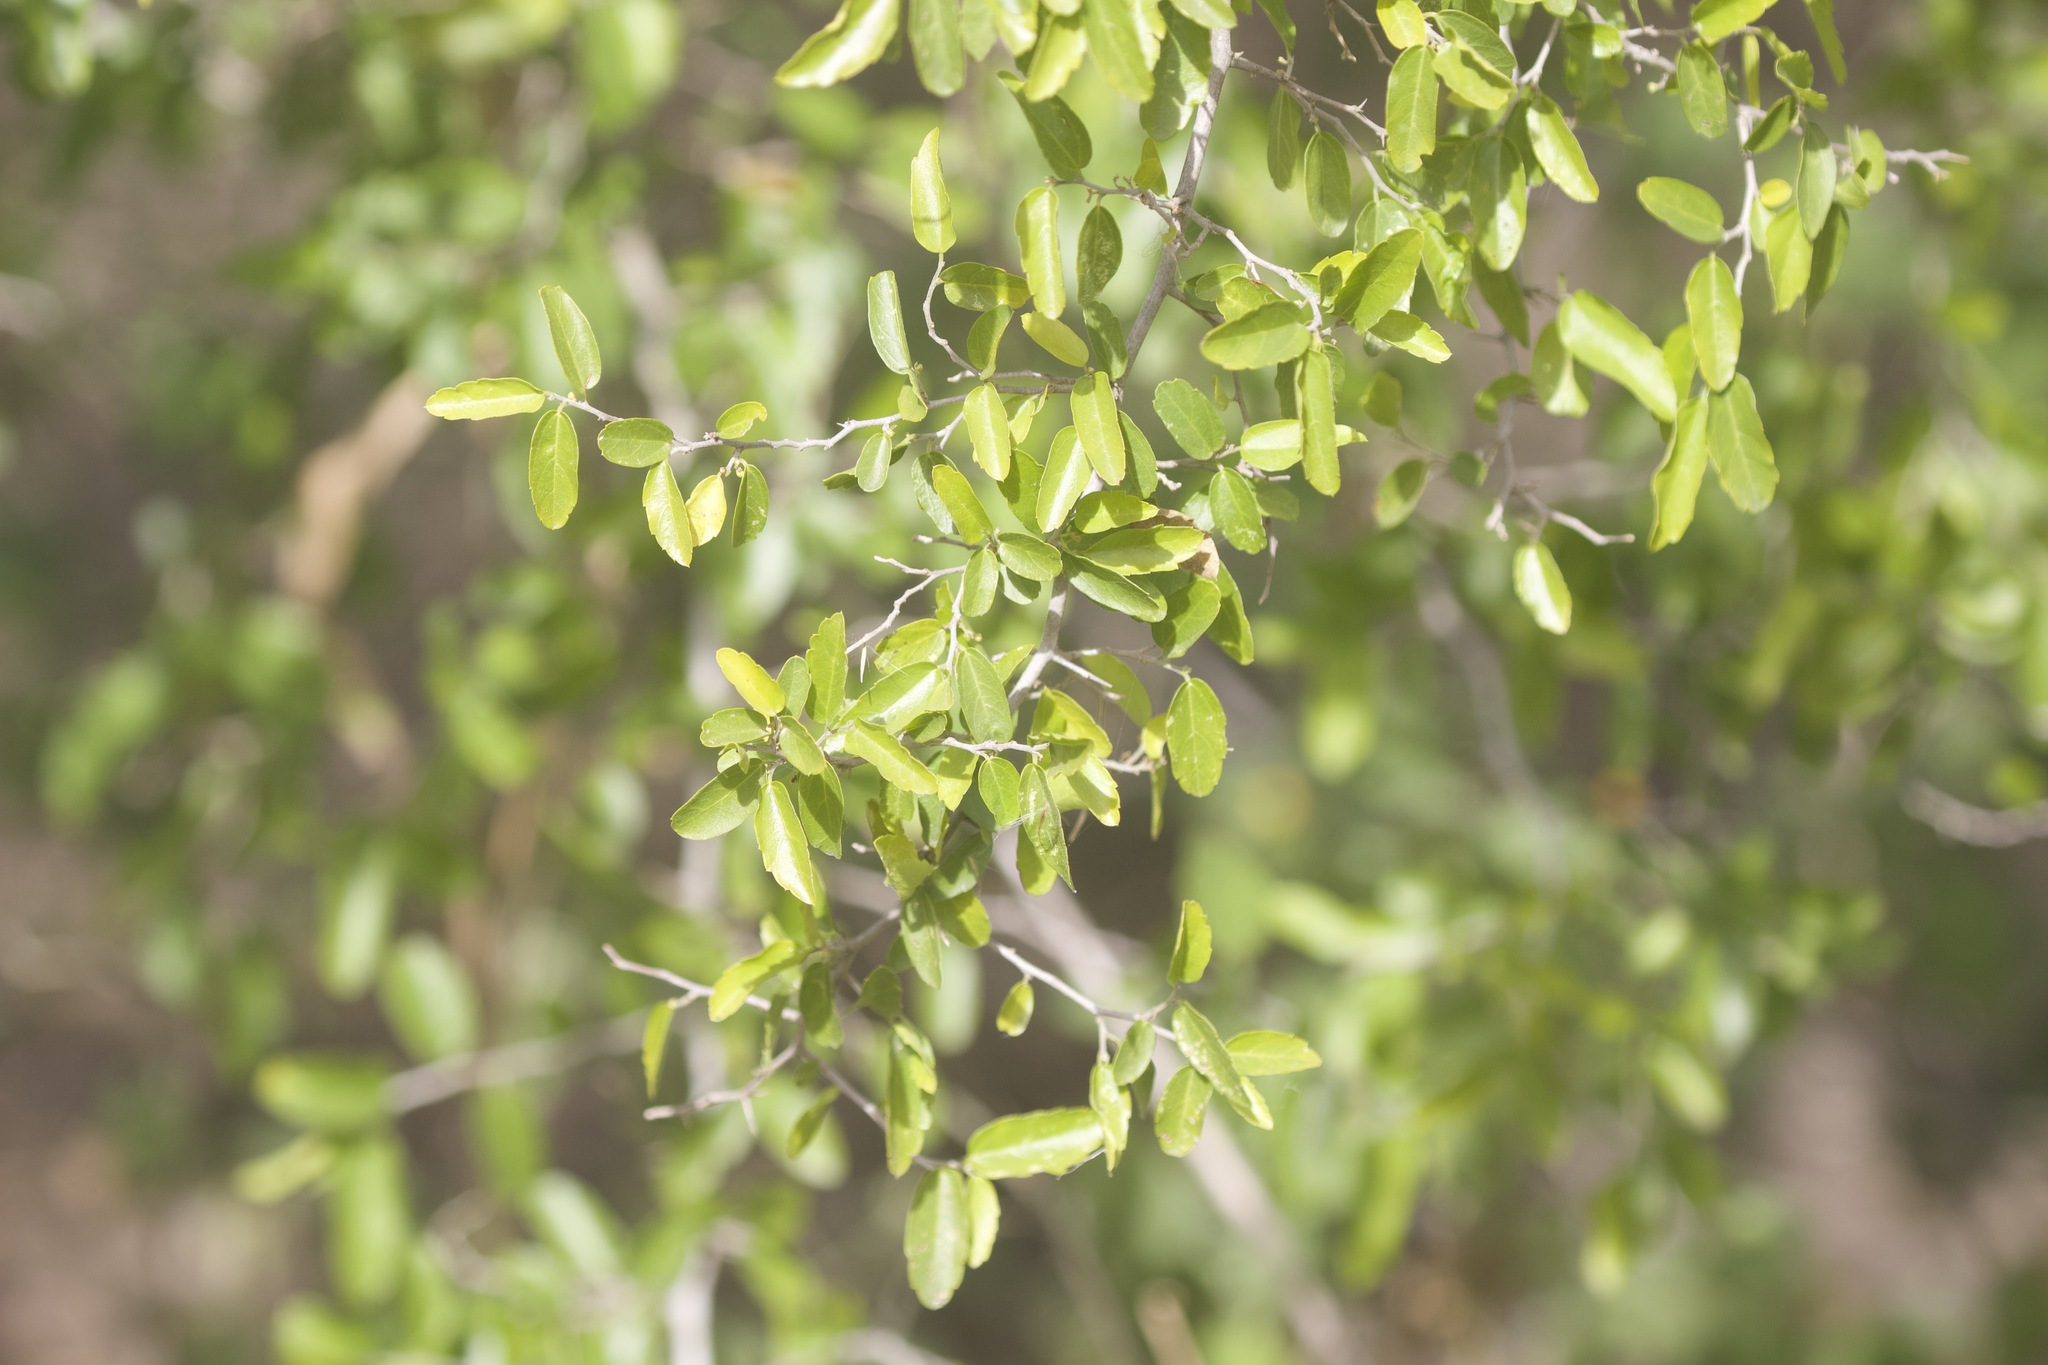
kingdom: Plantae
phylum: Tracheophyta
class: Magnoliopsida
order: Rosales
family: Cannabaceae
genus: Celtis
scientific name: Celtis pallida
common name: Desert hackberry
